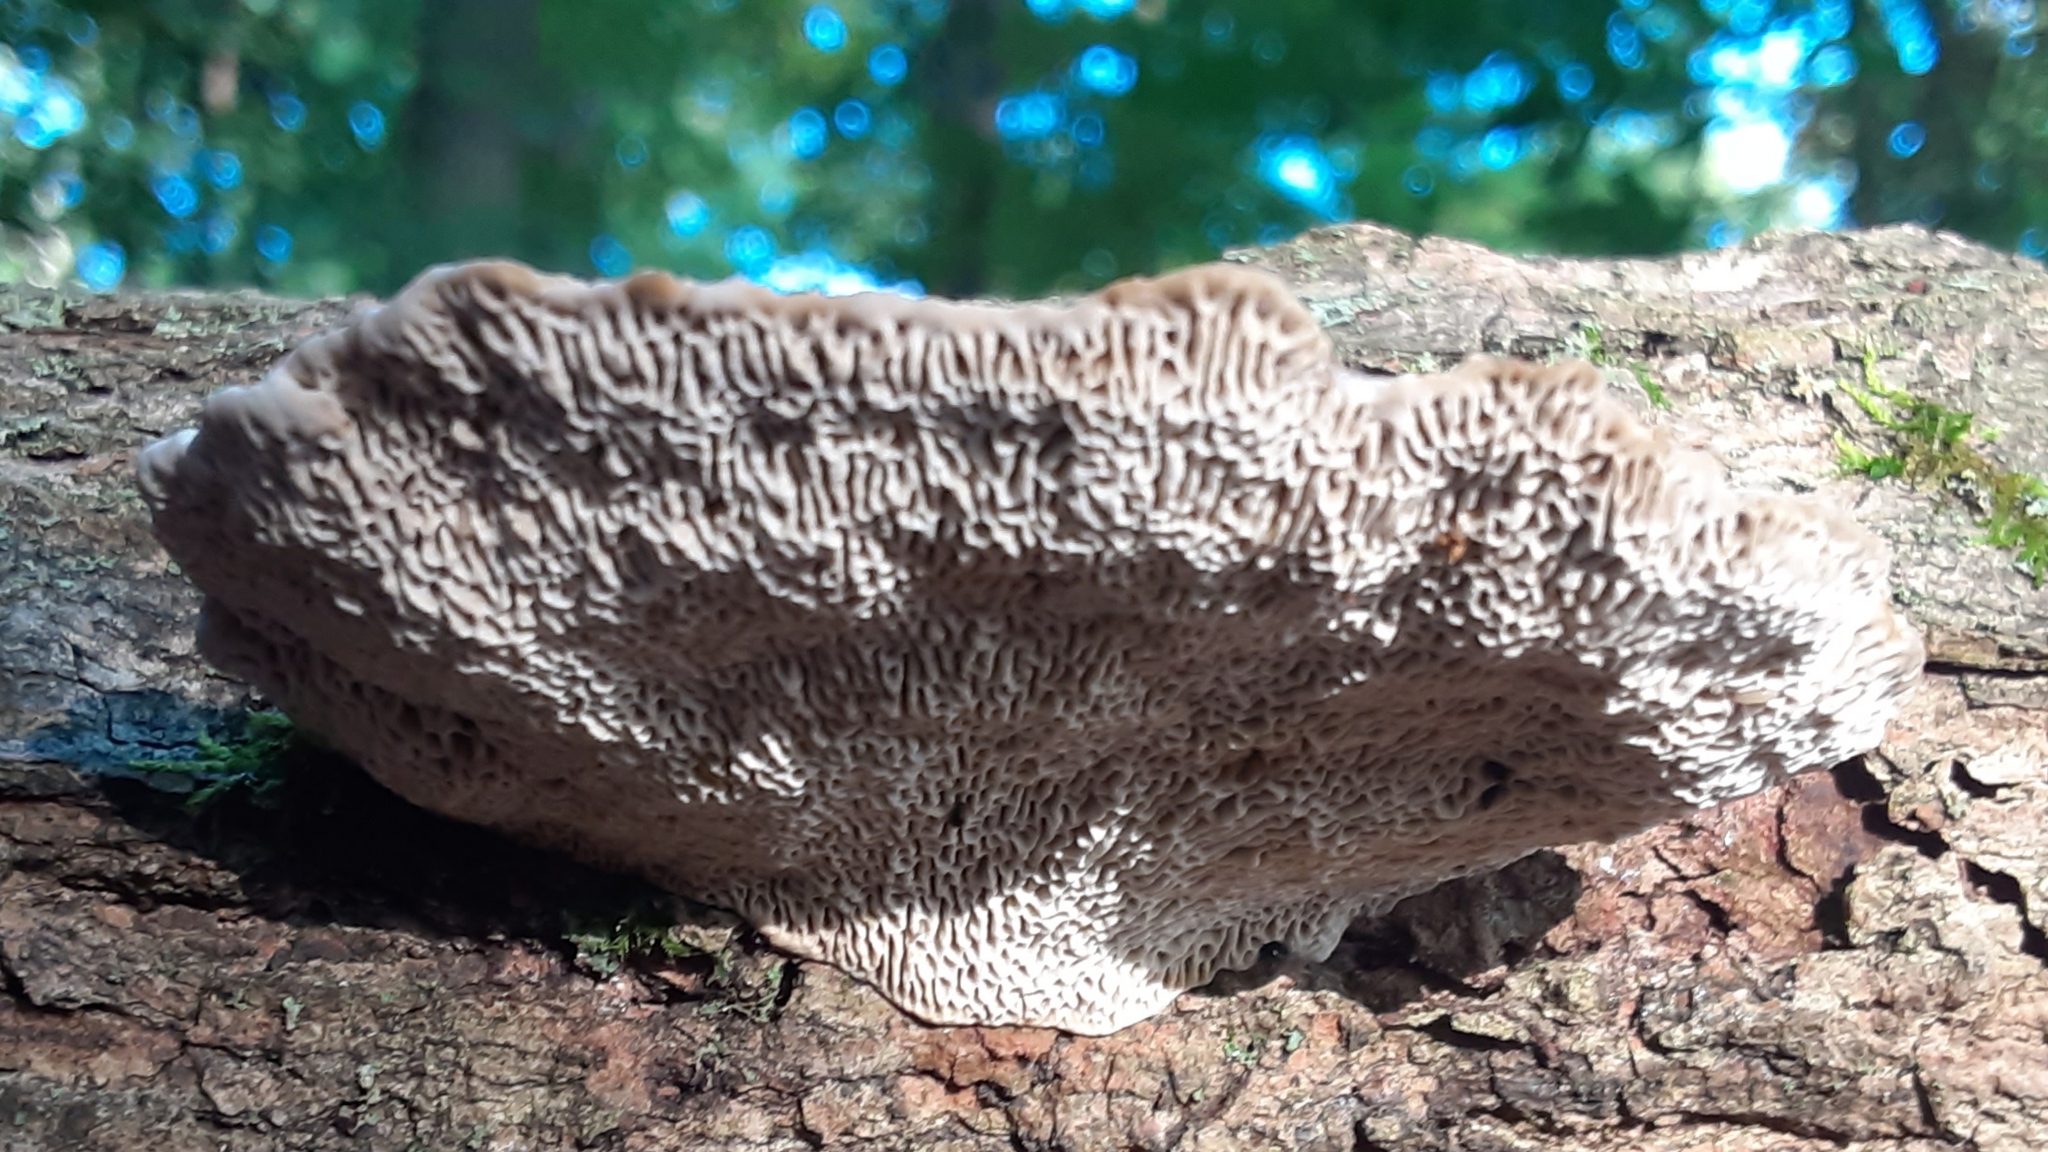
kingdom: Fungi
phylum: Basidiomycota
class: Agaricomycetes
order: Polyporales
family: Polyporaceae
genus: Daedaleopsis
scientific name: Daedaleopsis confragosa
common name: Blushing bracket
